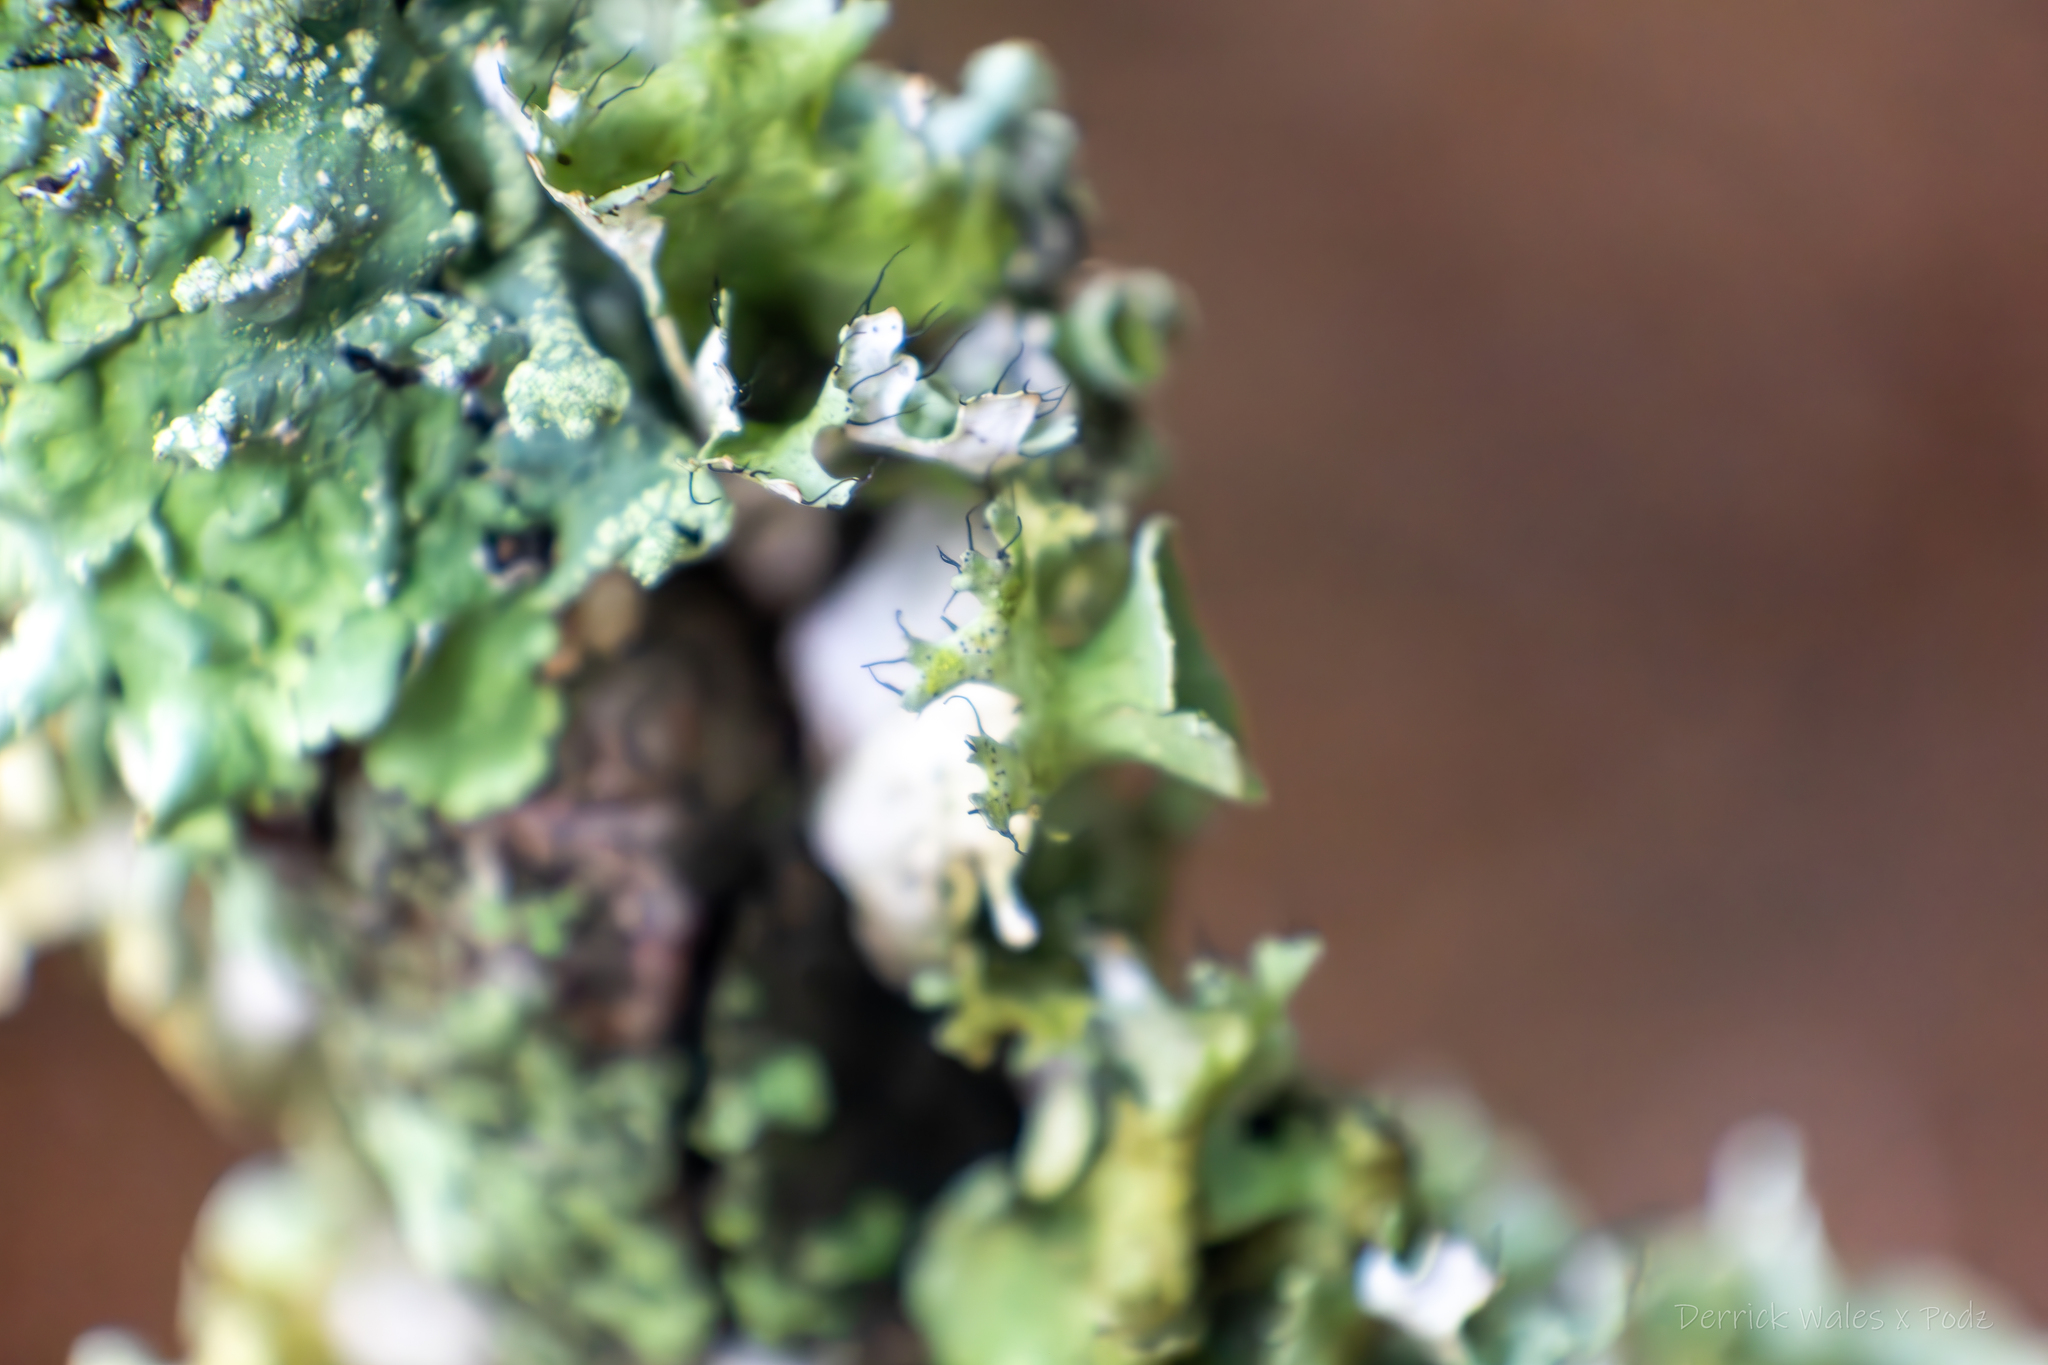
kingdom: Fungi
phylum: Ascomycota
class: Lecanoromycetes
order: Lecanorales
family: Parmeliaceae
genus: Parmotrema
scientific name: Parmotrema perforatum
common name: Perforated ruffle lichen
